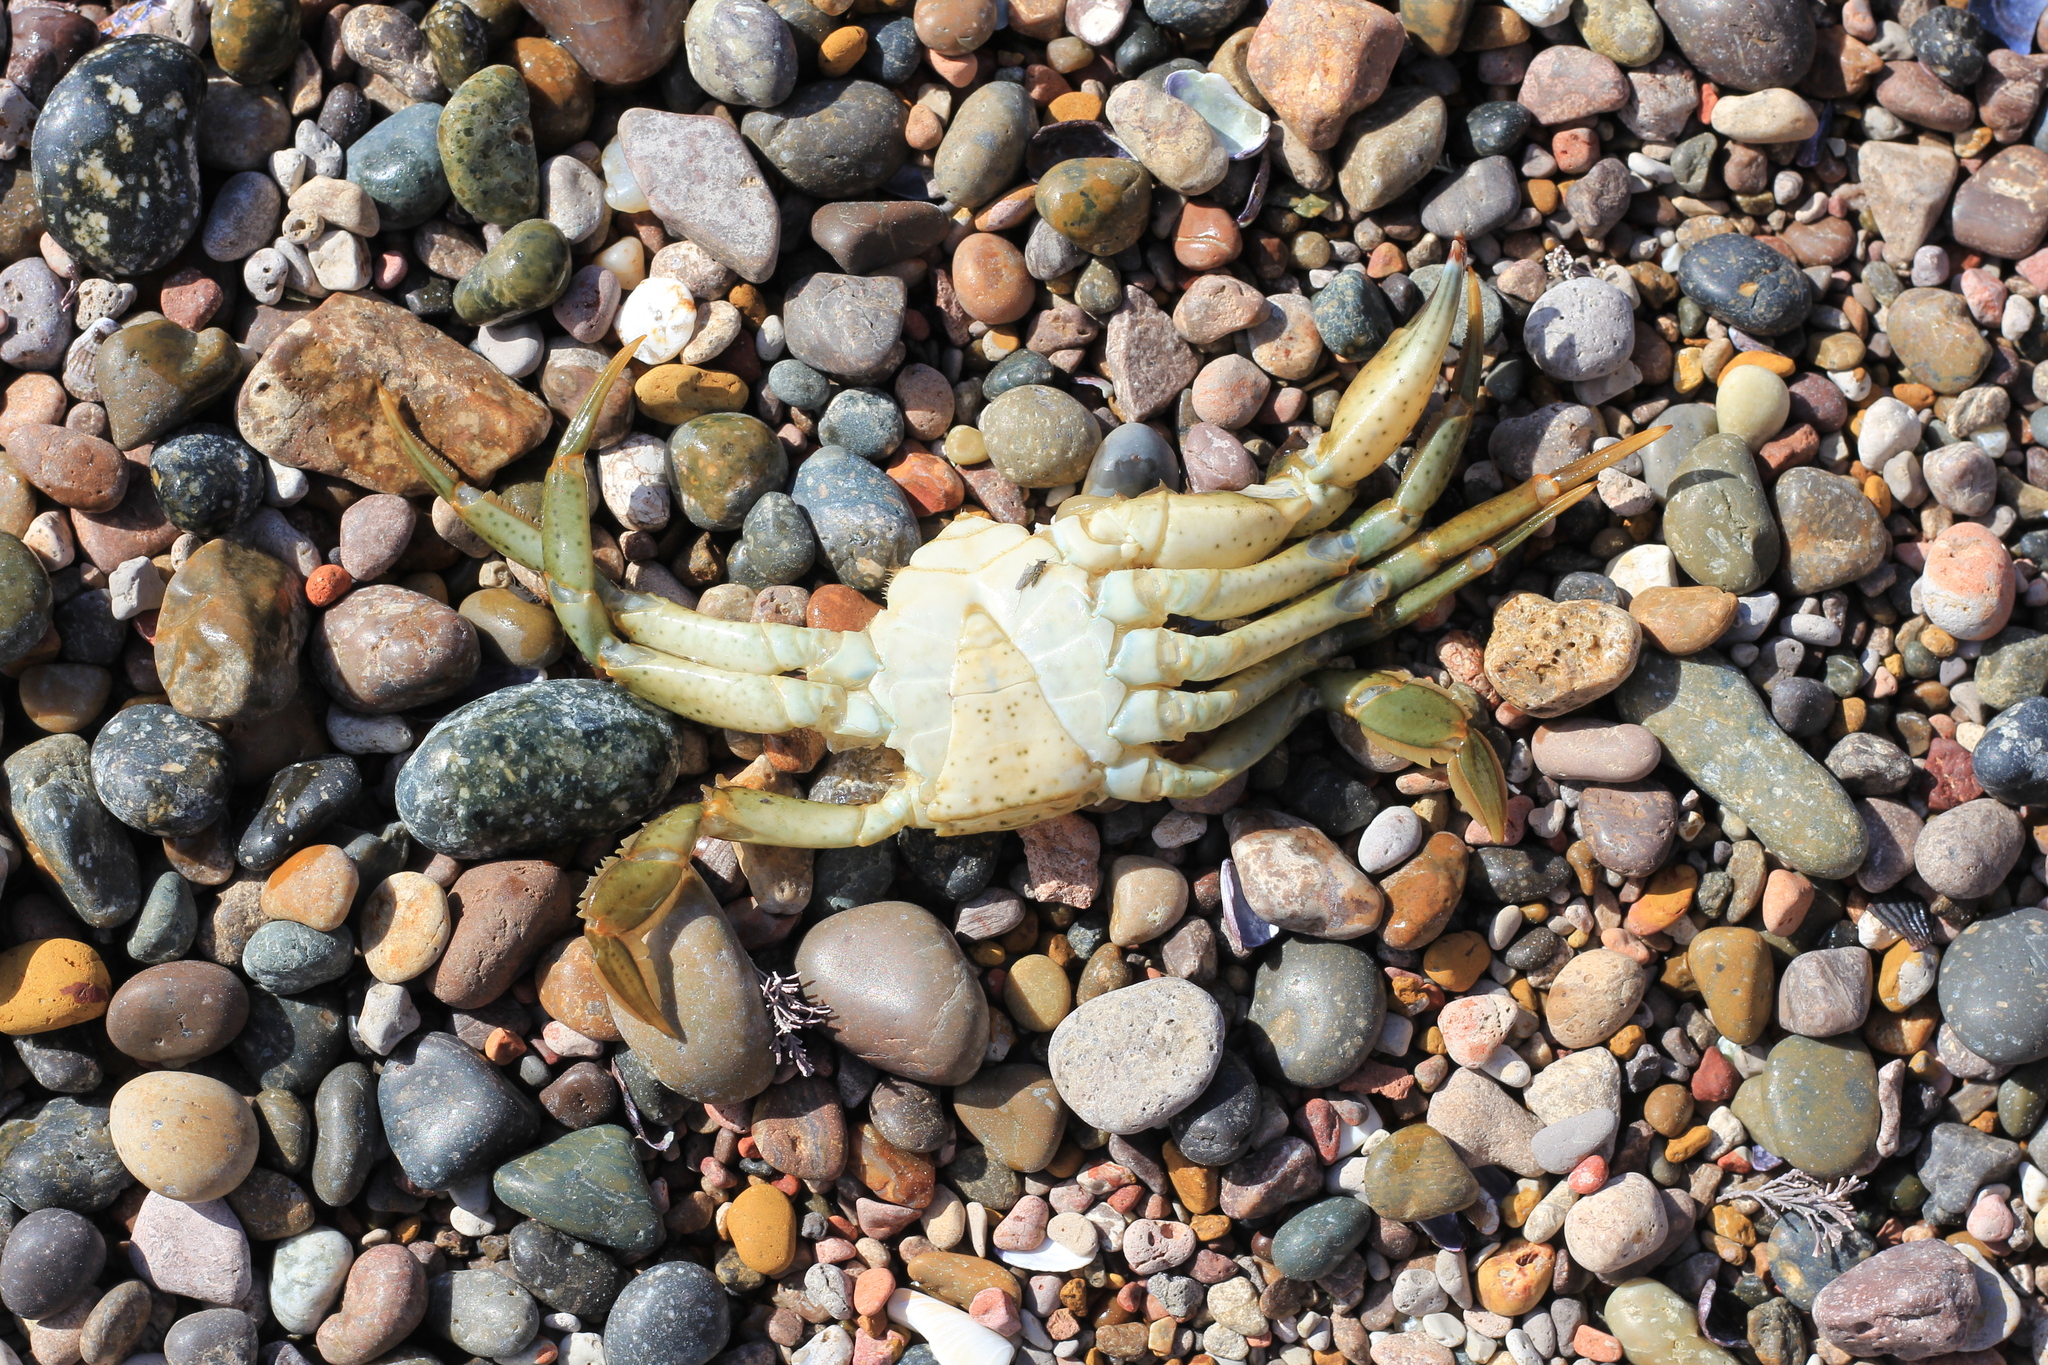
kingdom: Animalia
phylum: Arthropoda
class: Malacostraca
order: Decapoda
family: Carcinidae
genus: Carcinus
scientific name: Carcinus maenas
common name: European green crab
